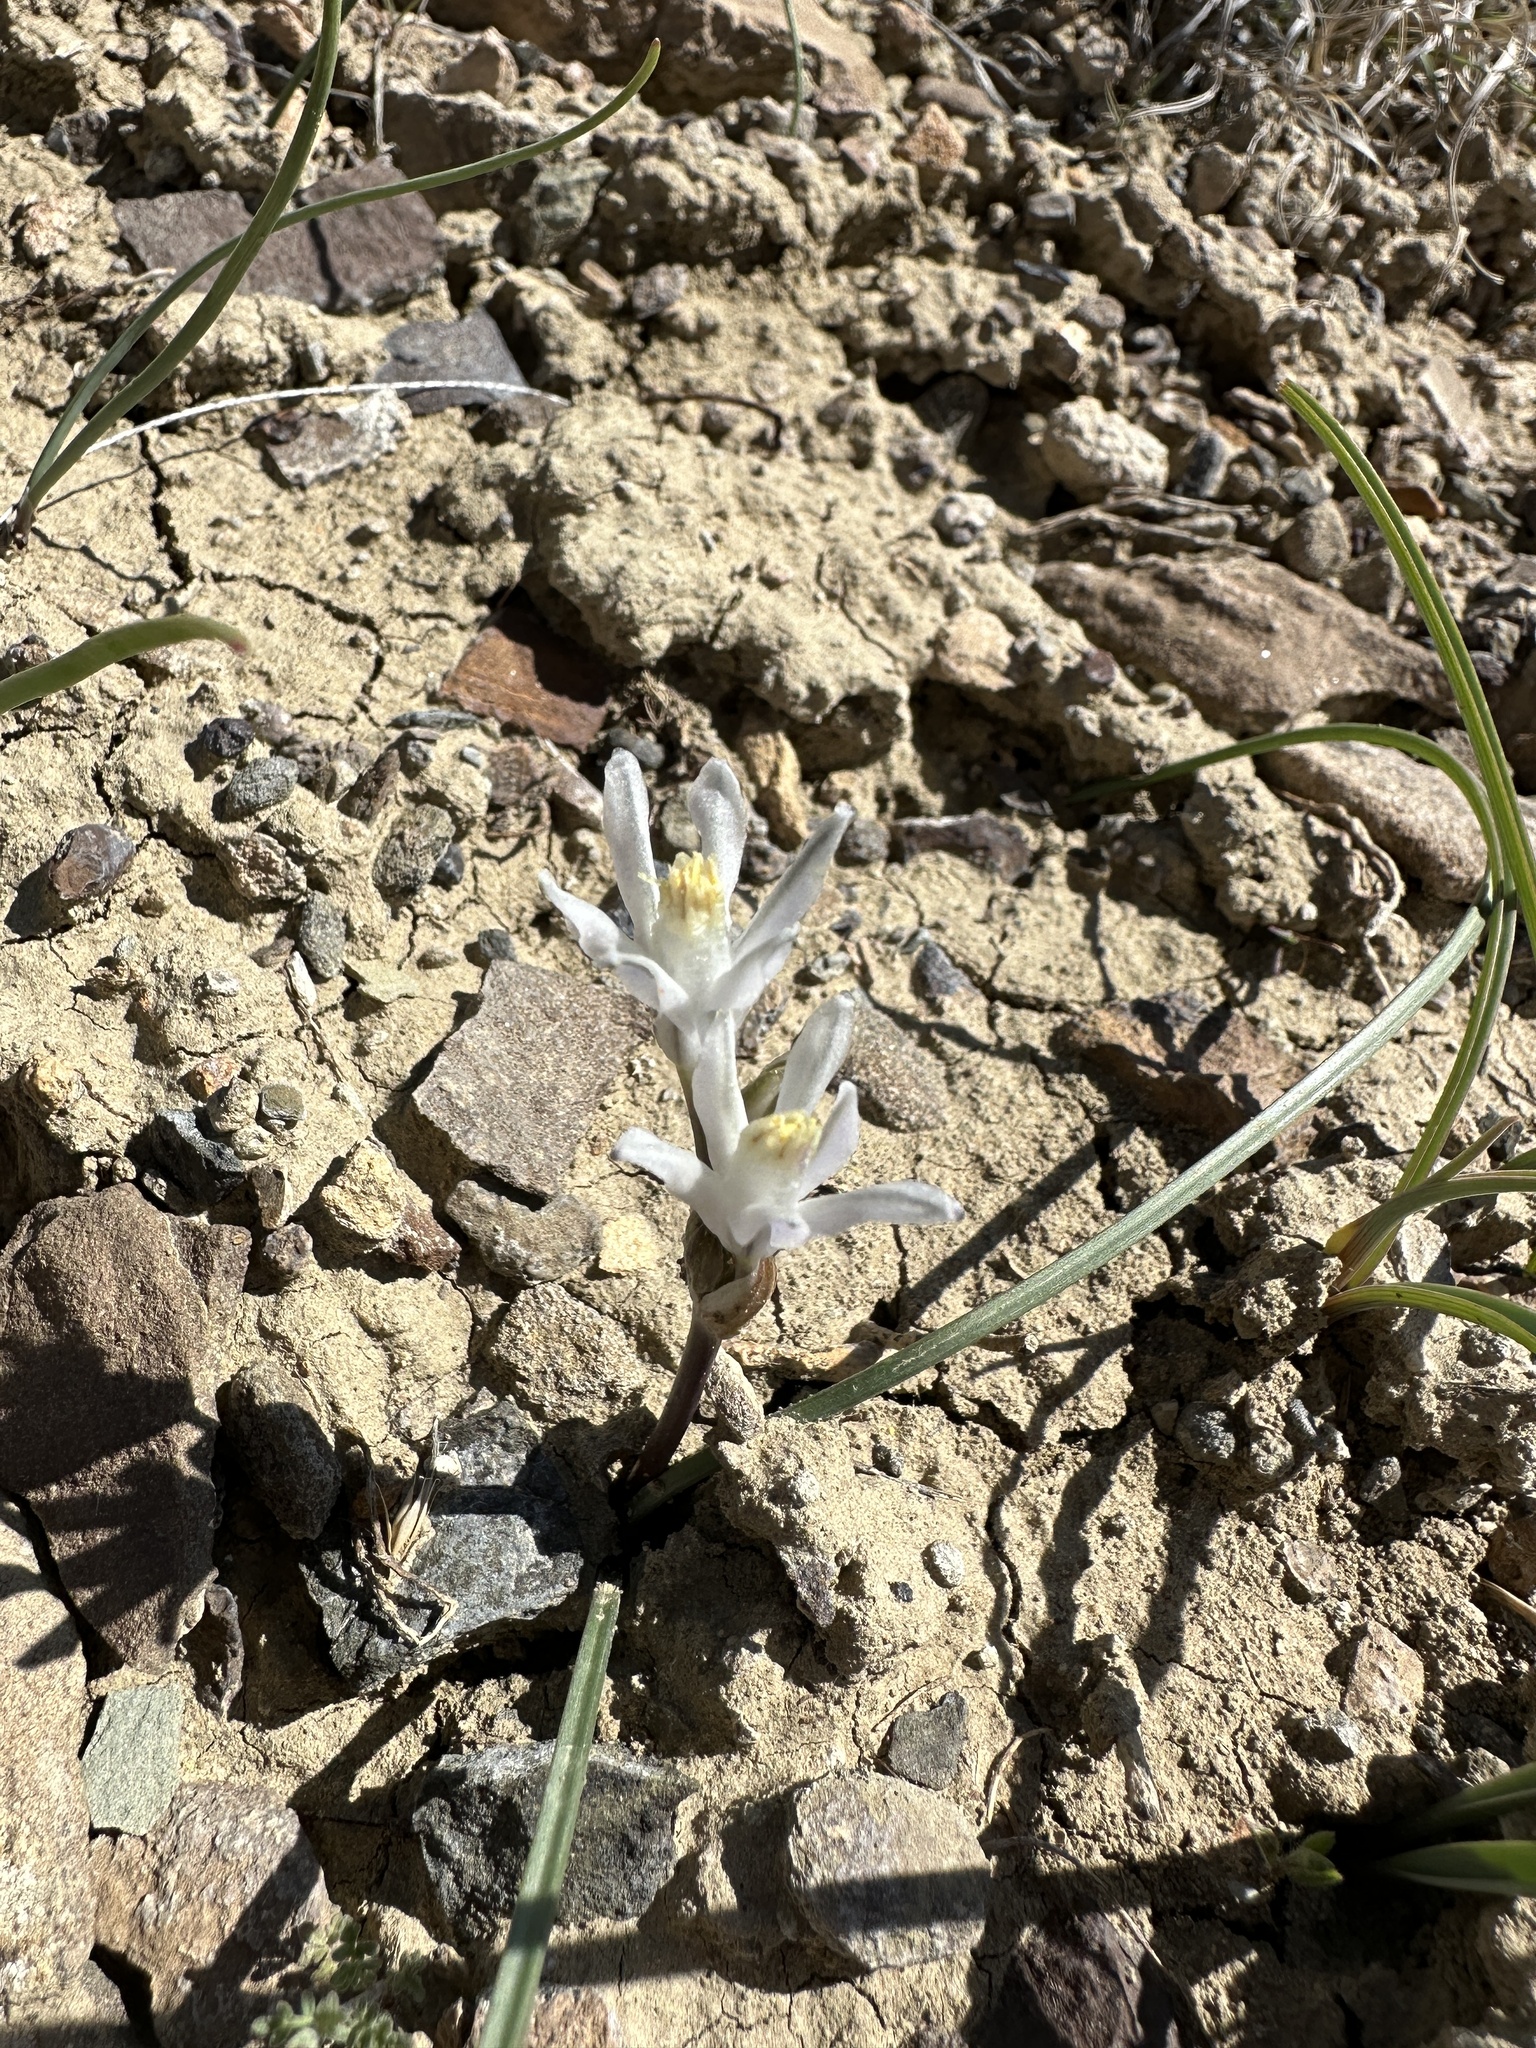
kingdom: Plantae
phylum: Tracheophyta
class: Liliopsida
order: Asparagales
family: Asparagaceae
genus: Androstephium
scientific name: Androstephium breviflorum
